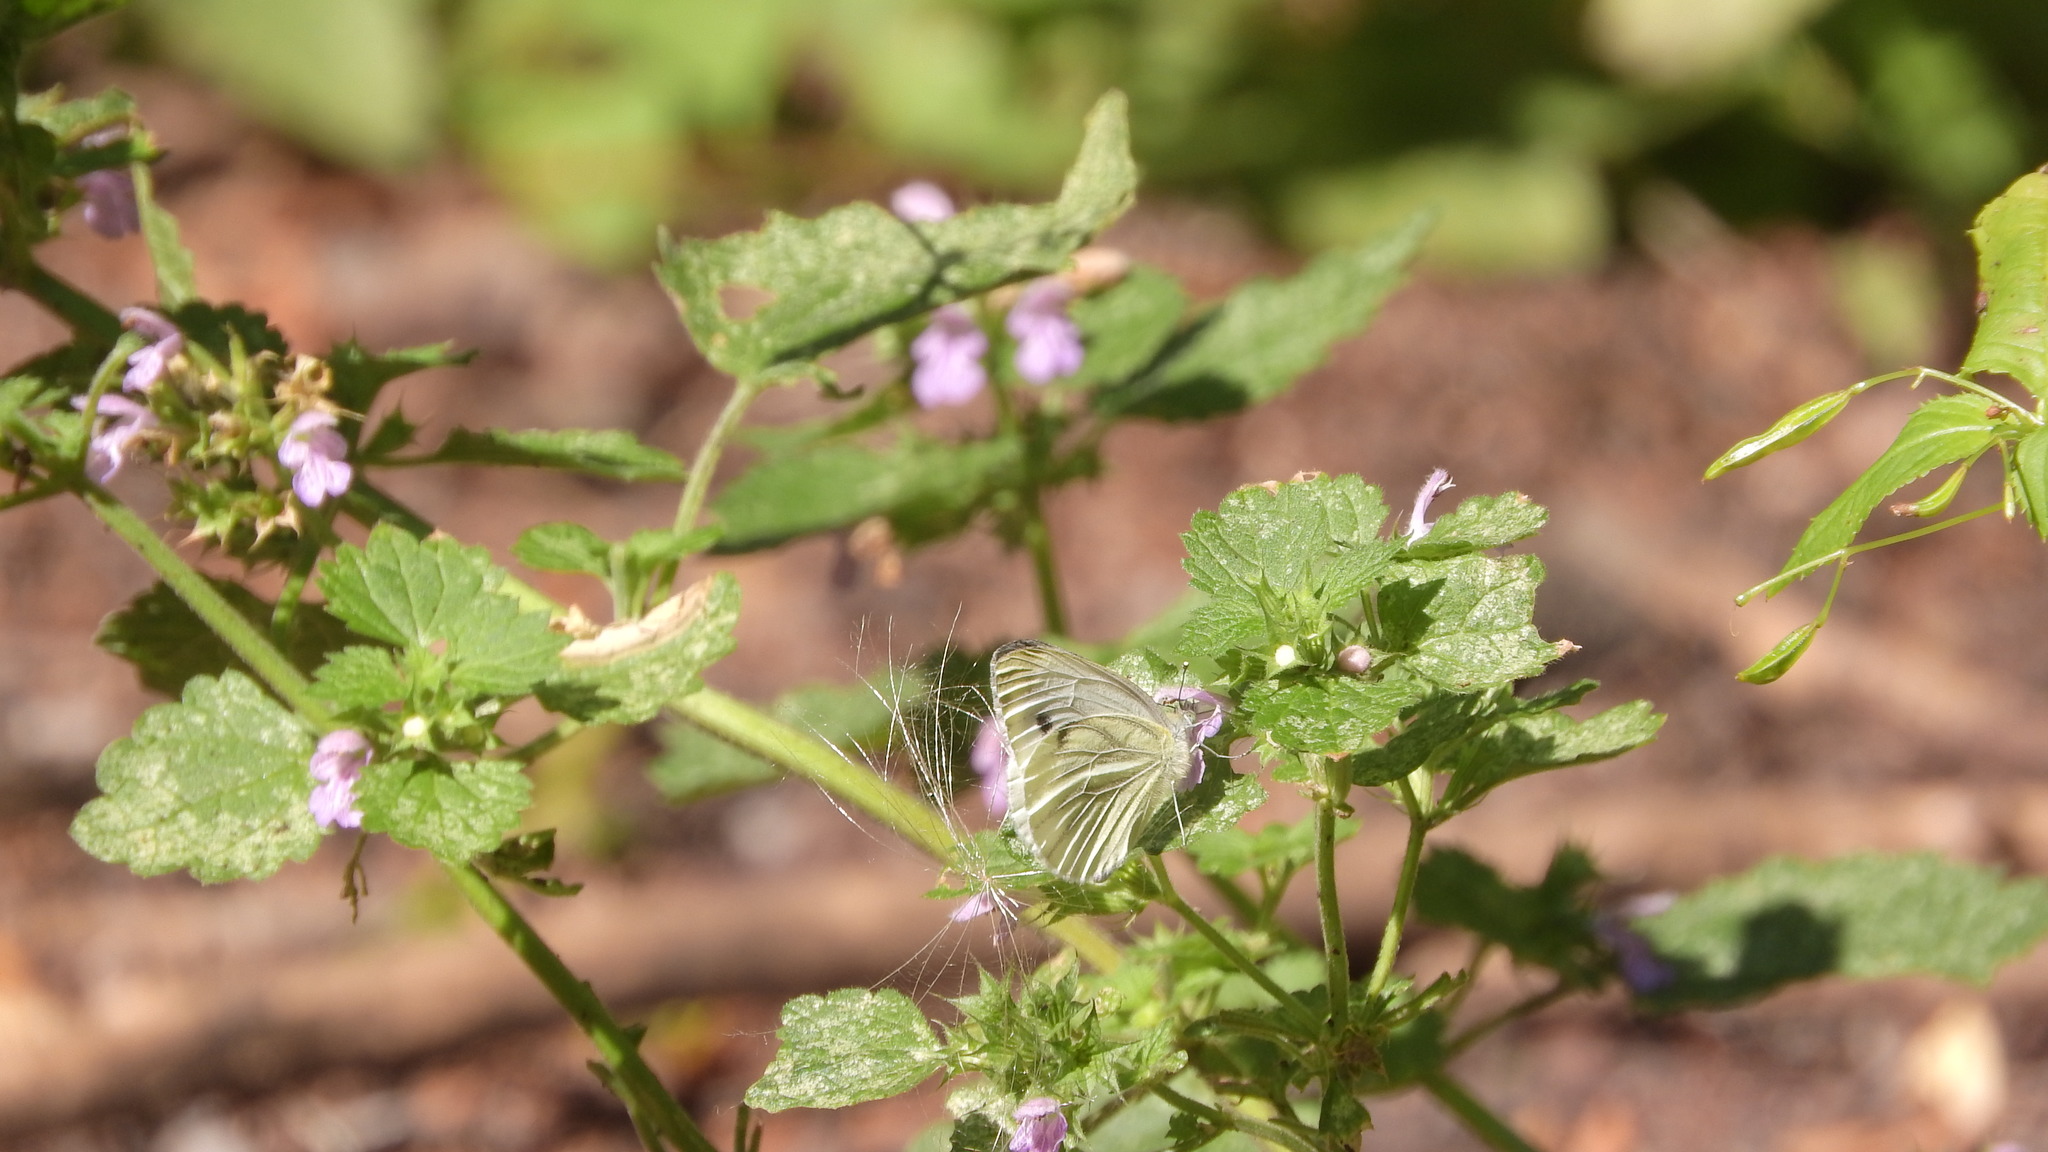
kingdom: Animalia
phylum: Arthropoda
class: Insecta
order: Lepidoptera
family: Pieridae
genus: Pieris
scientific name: Pieris napi
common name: Green-veined white
